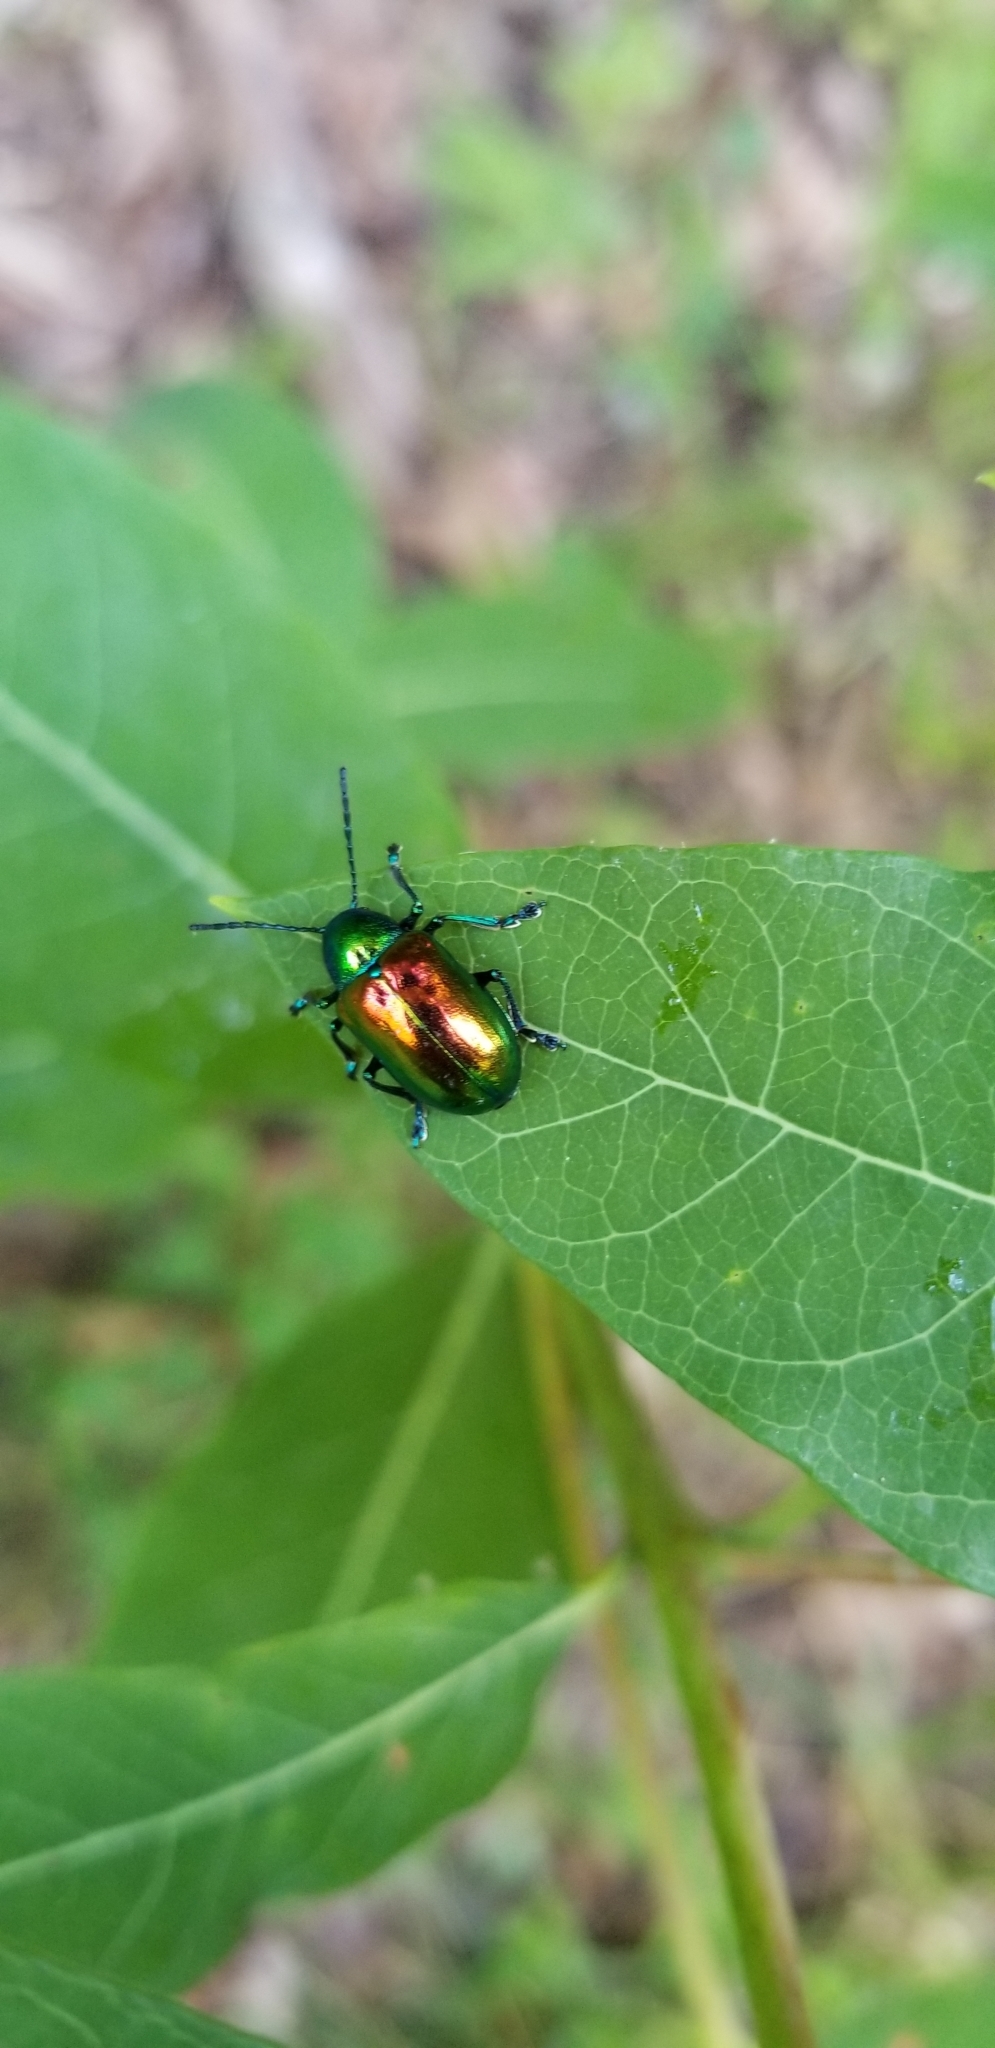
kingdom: Animalia
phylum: Arthropoda
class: Insecta
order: Coleoptera
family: Chrysomelidae
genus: Chrysochus
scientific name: Chrysochus auratus
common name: Dogbane leaf beetle
